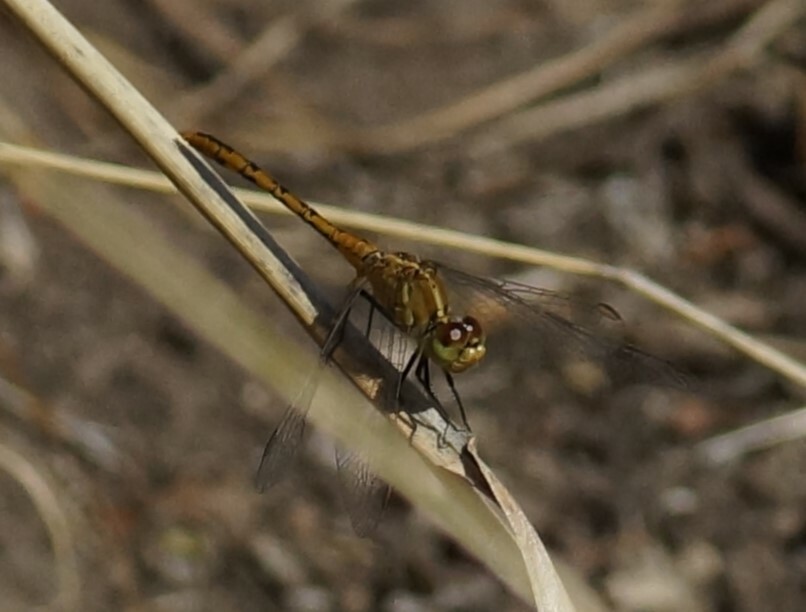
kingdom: Animalia
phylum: Arthropoda
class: Insecta
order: Odonata
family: Libellulidae
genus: Diplacodes
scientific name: Diplacodes bipunctata
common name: Red percher dragonfly
